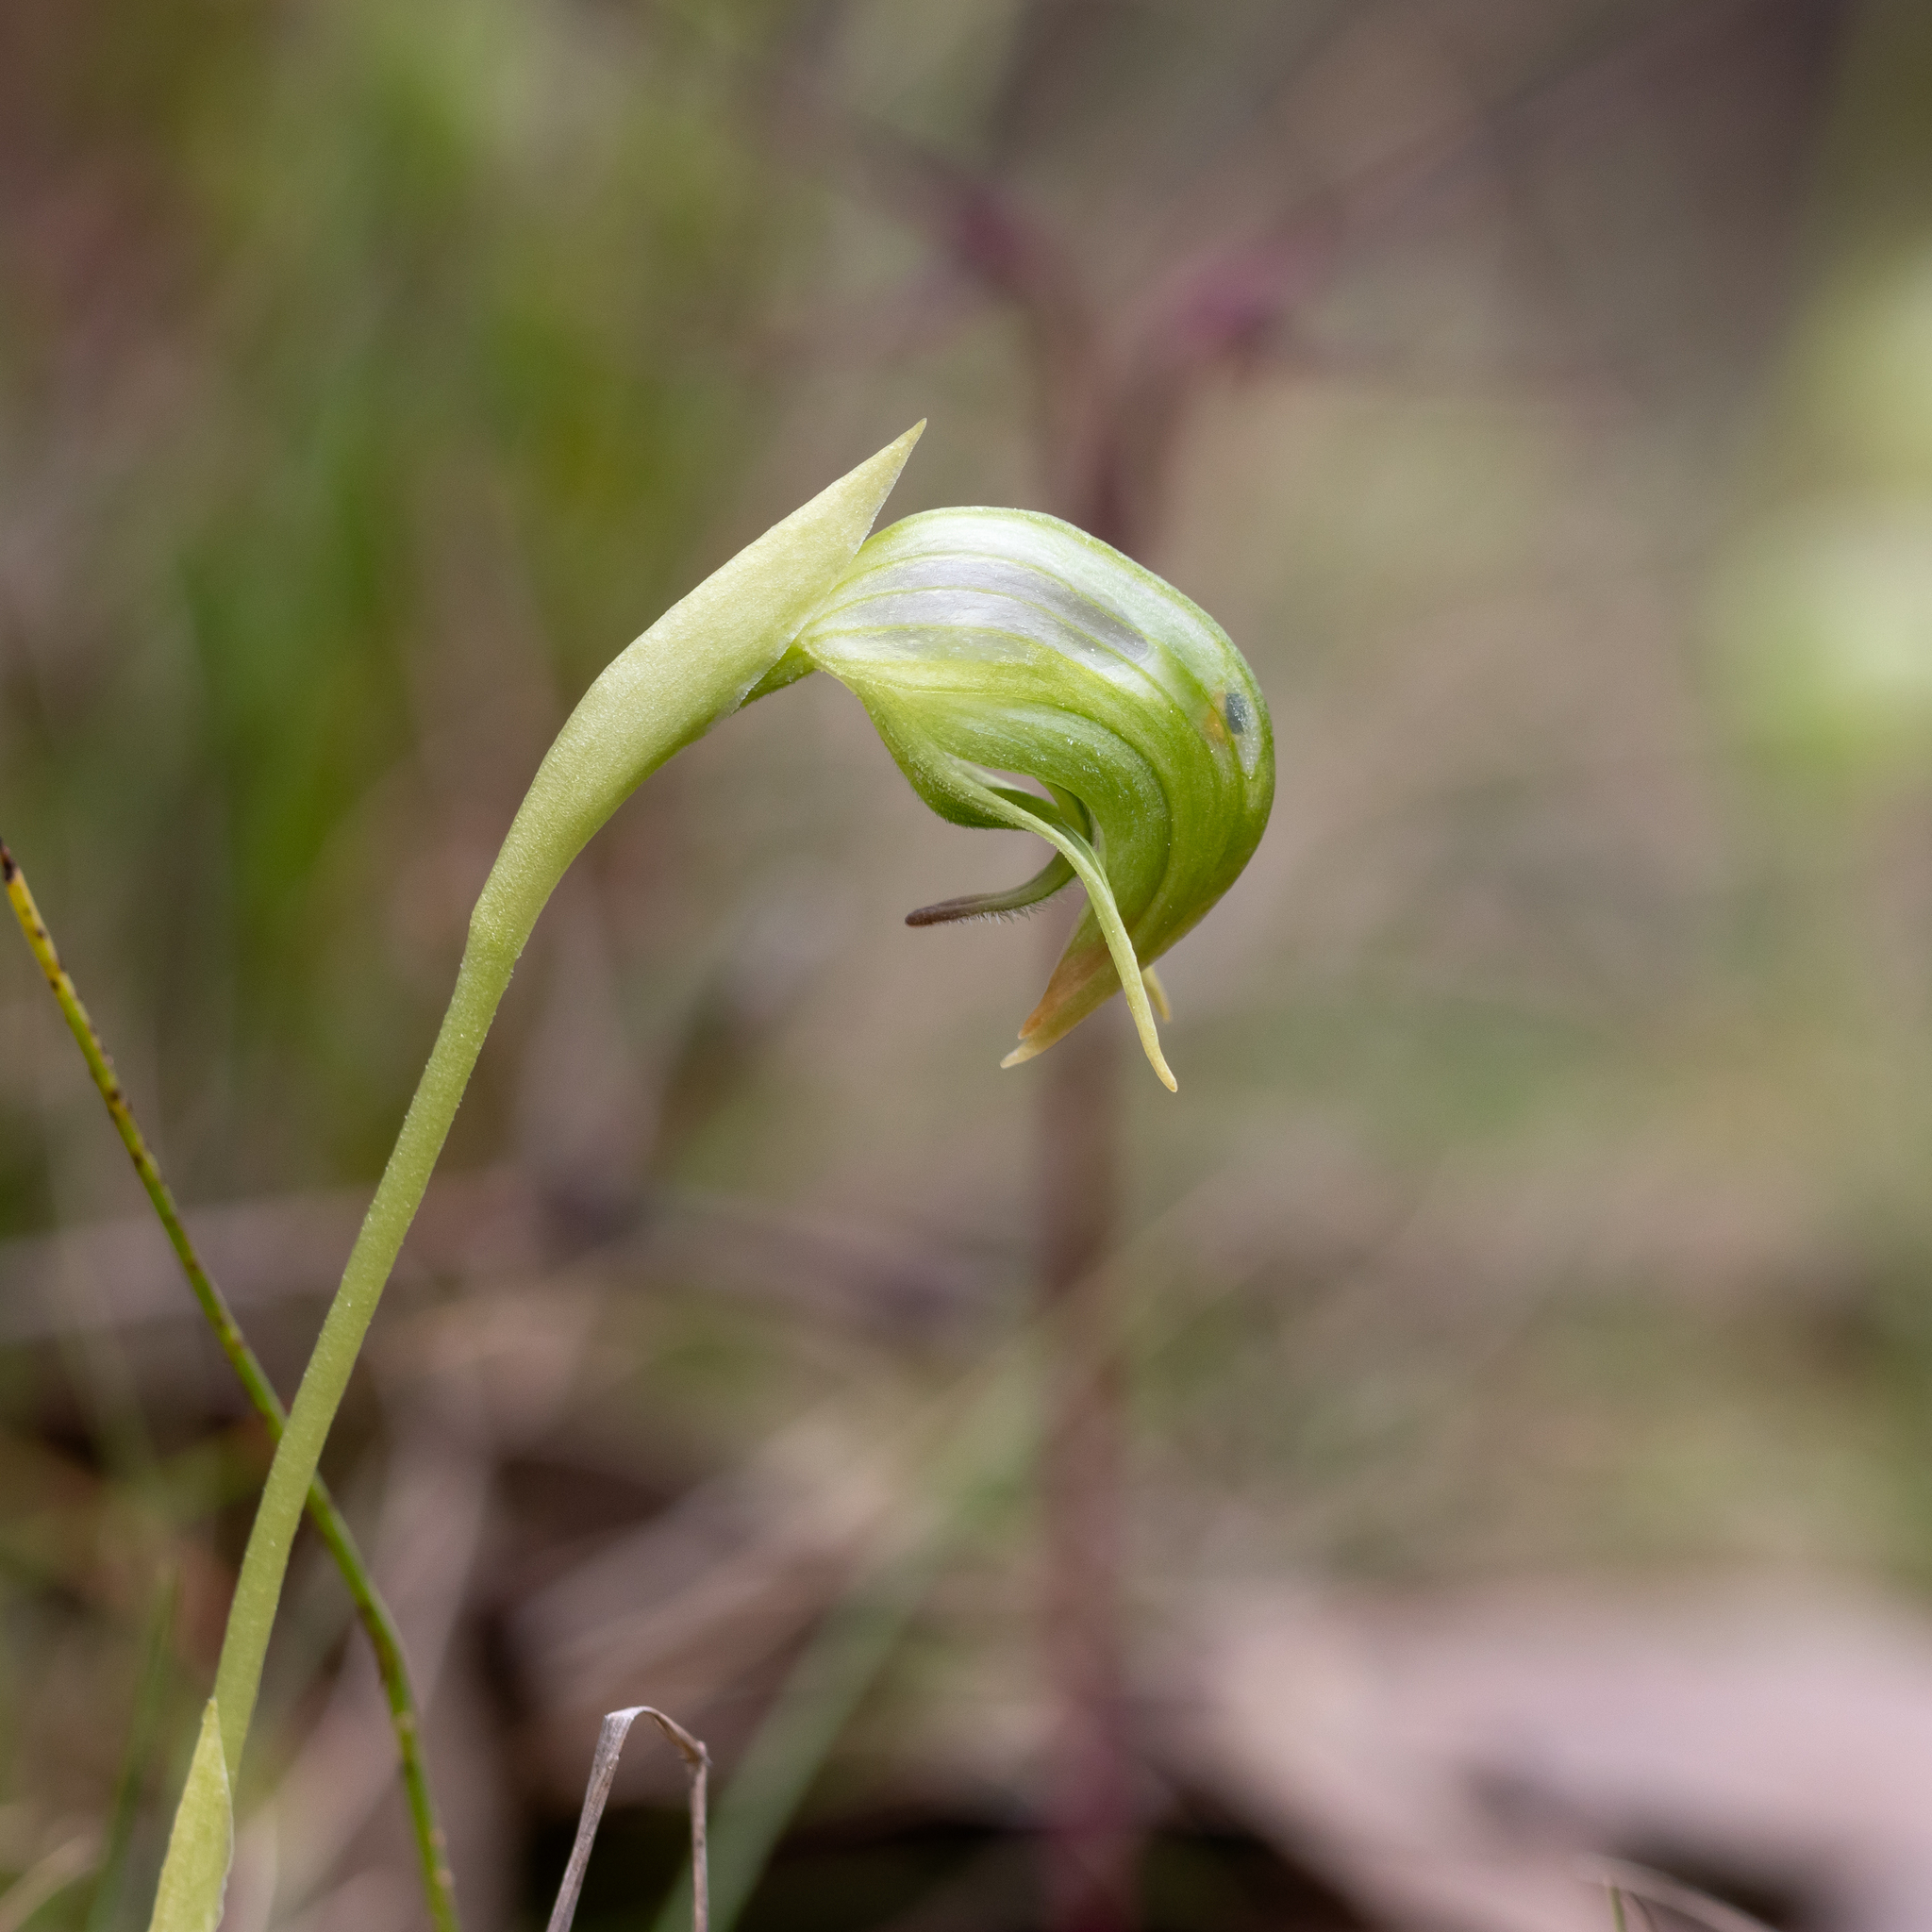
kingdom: Plantae
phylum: Tracheophyta
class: Liliopsida
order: Asparagales
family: Orchidaceae
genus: Pterostylis
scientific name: Pterostylis nutans
